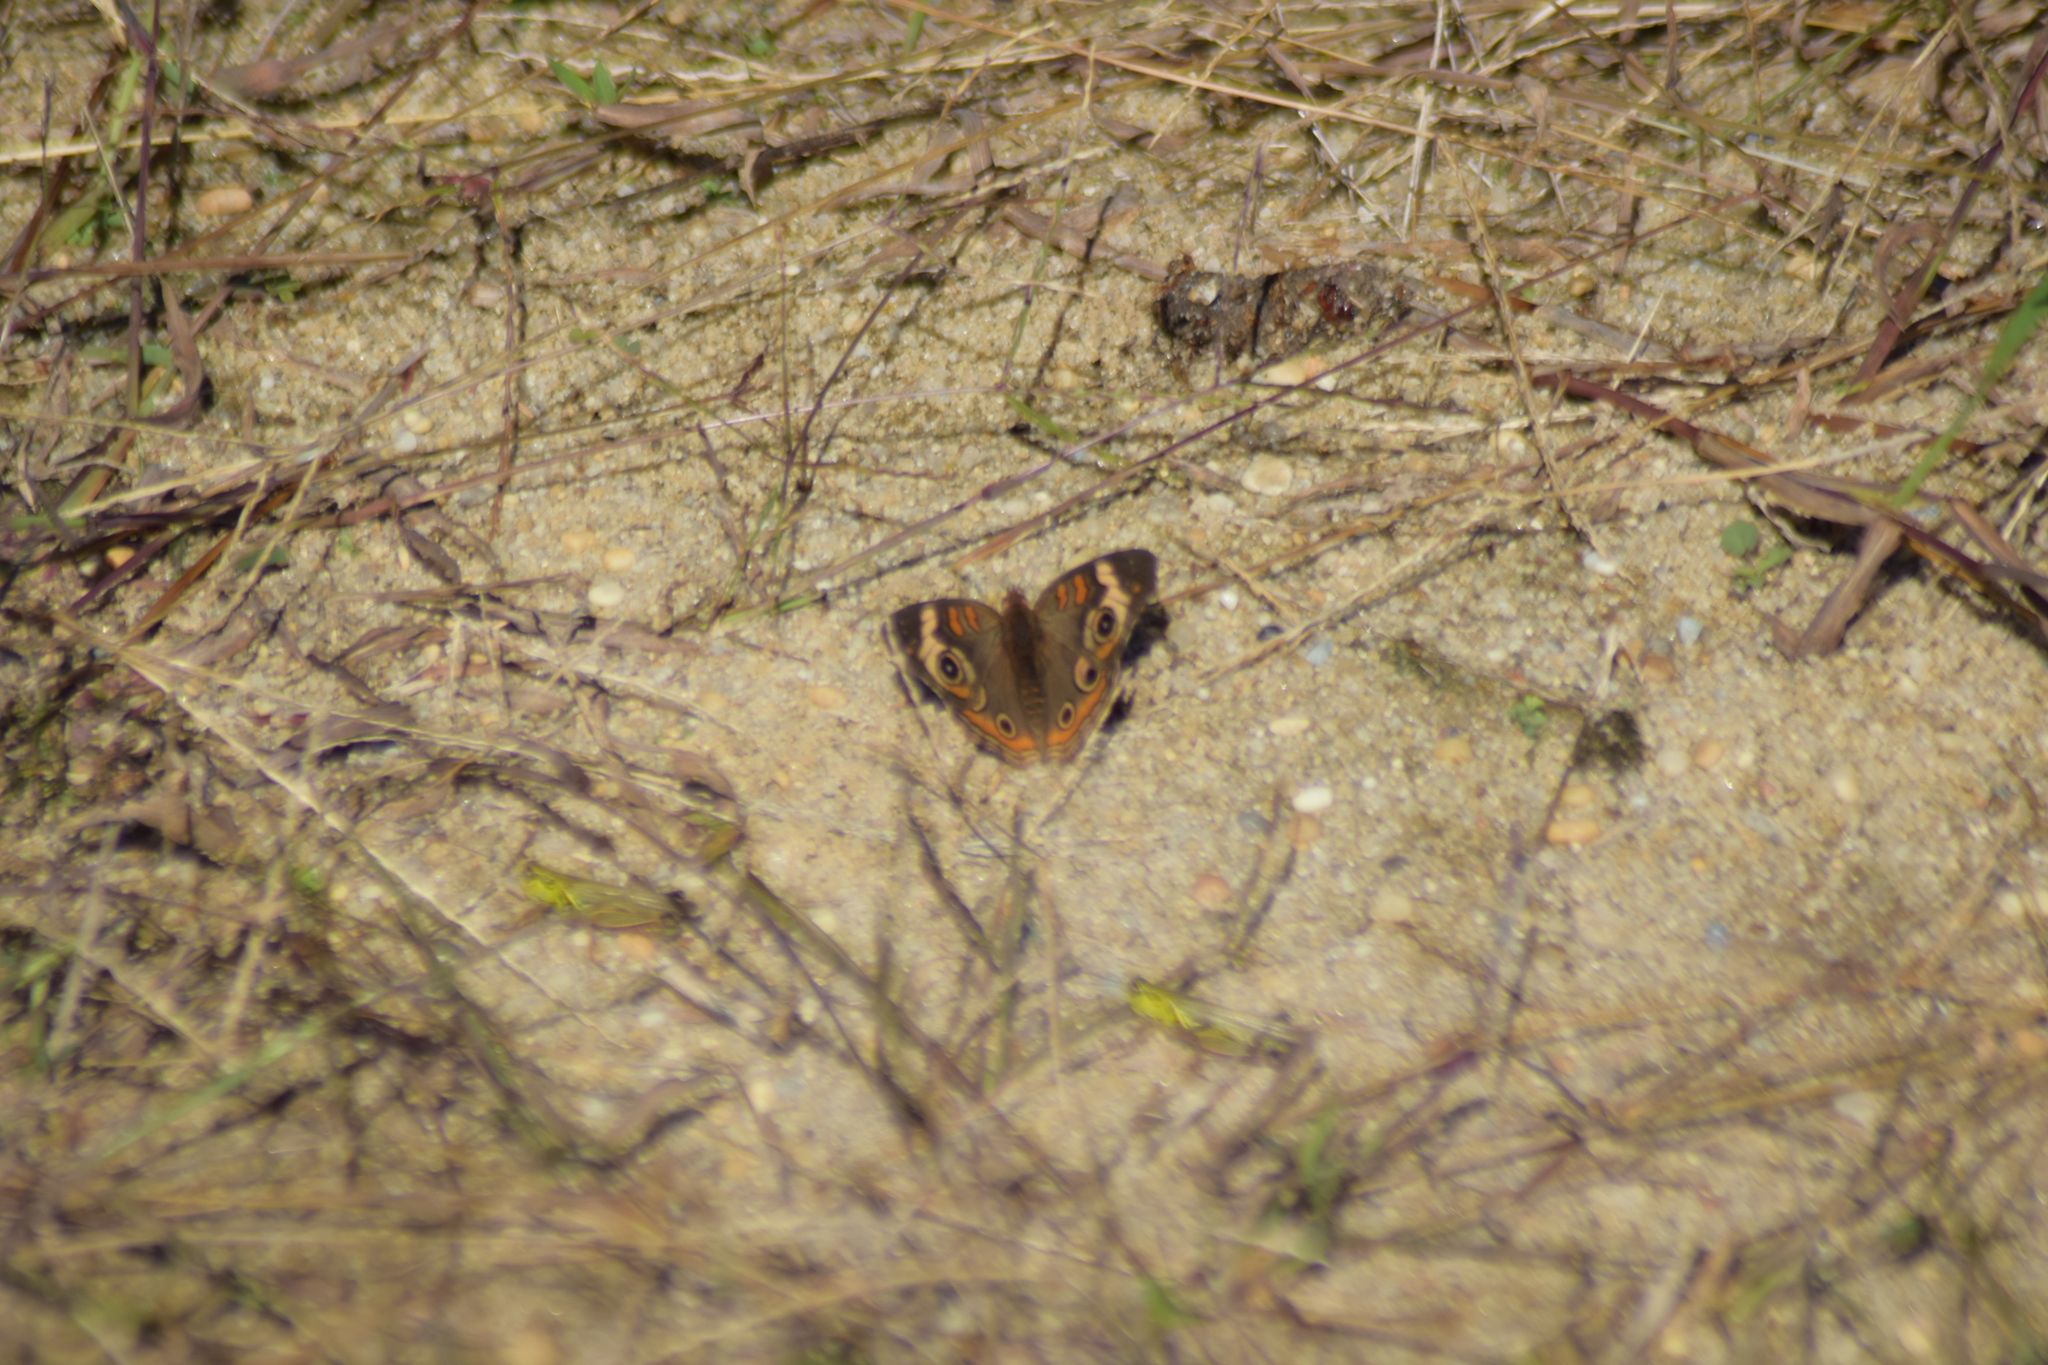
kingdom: Animalia
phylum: Arthropoda
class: Insecta
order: Lepidoptera
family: Nymphalidae
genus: Junonia
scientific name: Junonia coenia
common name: Common buckeye
